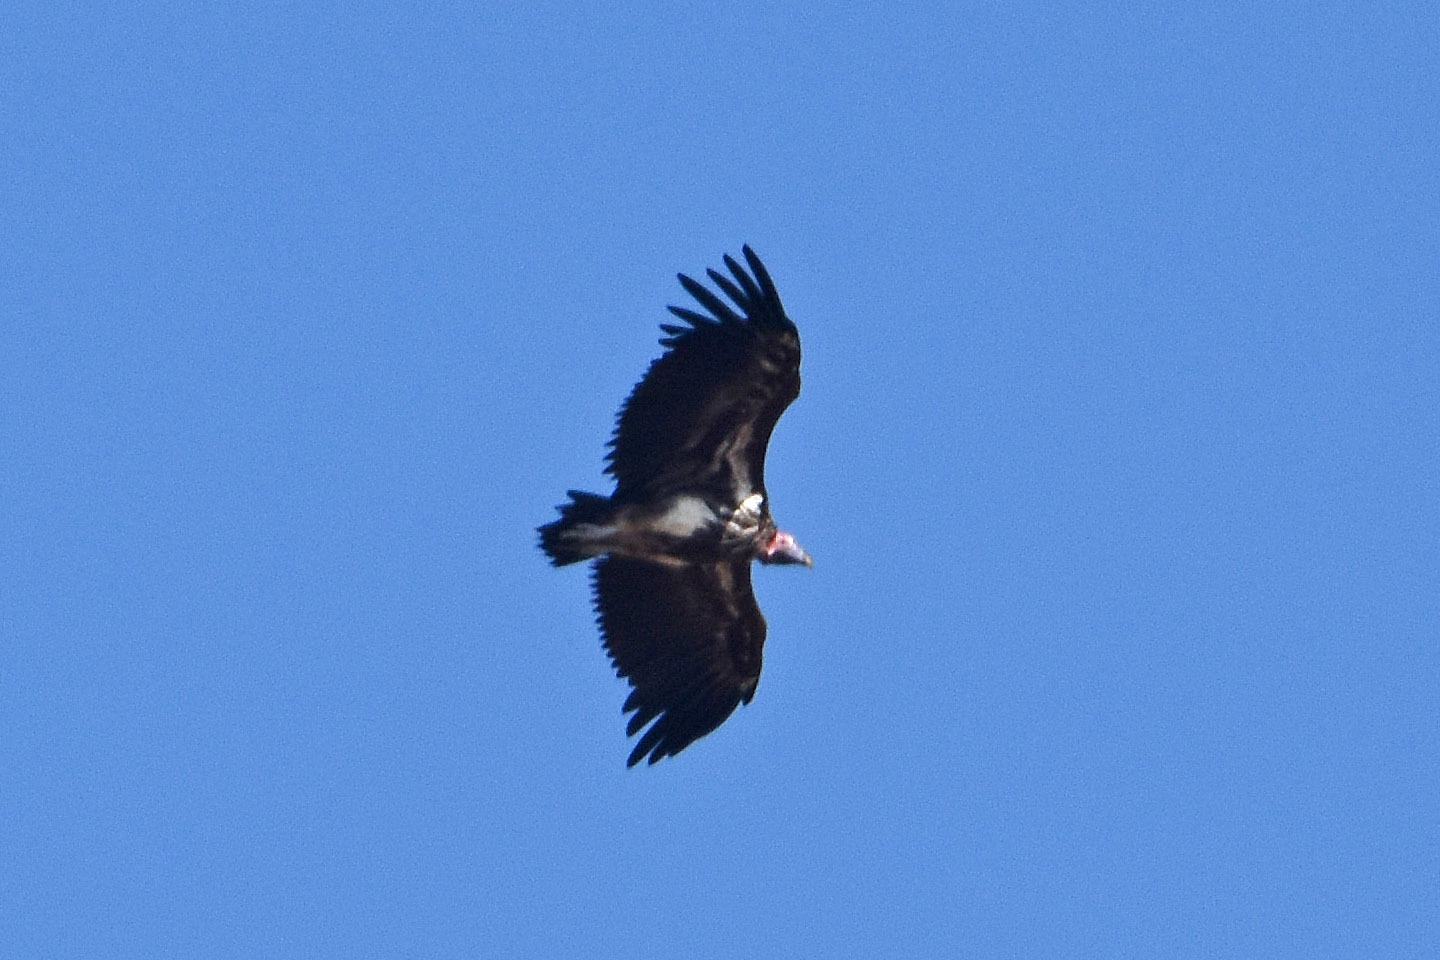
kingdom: Animalia
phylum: Chordata
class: Aves
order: Accipitriformes
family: Accipitridae
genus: Torgos
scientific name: Torgos tracheliotos
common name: Lappet-faced vulture
